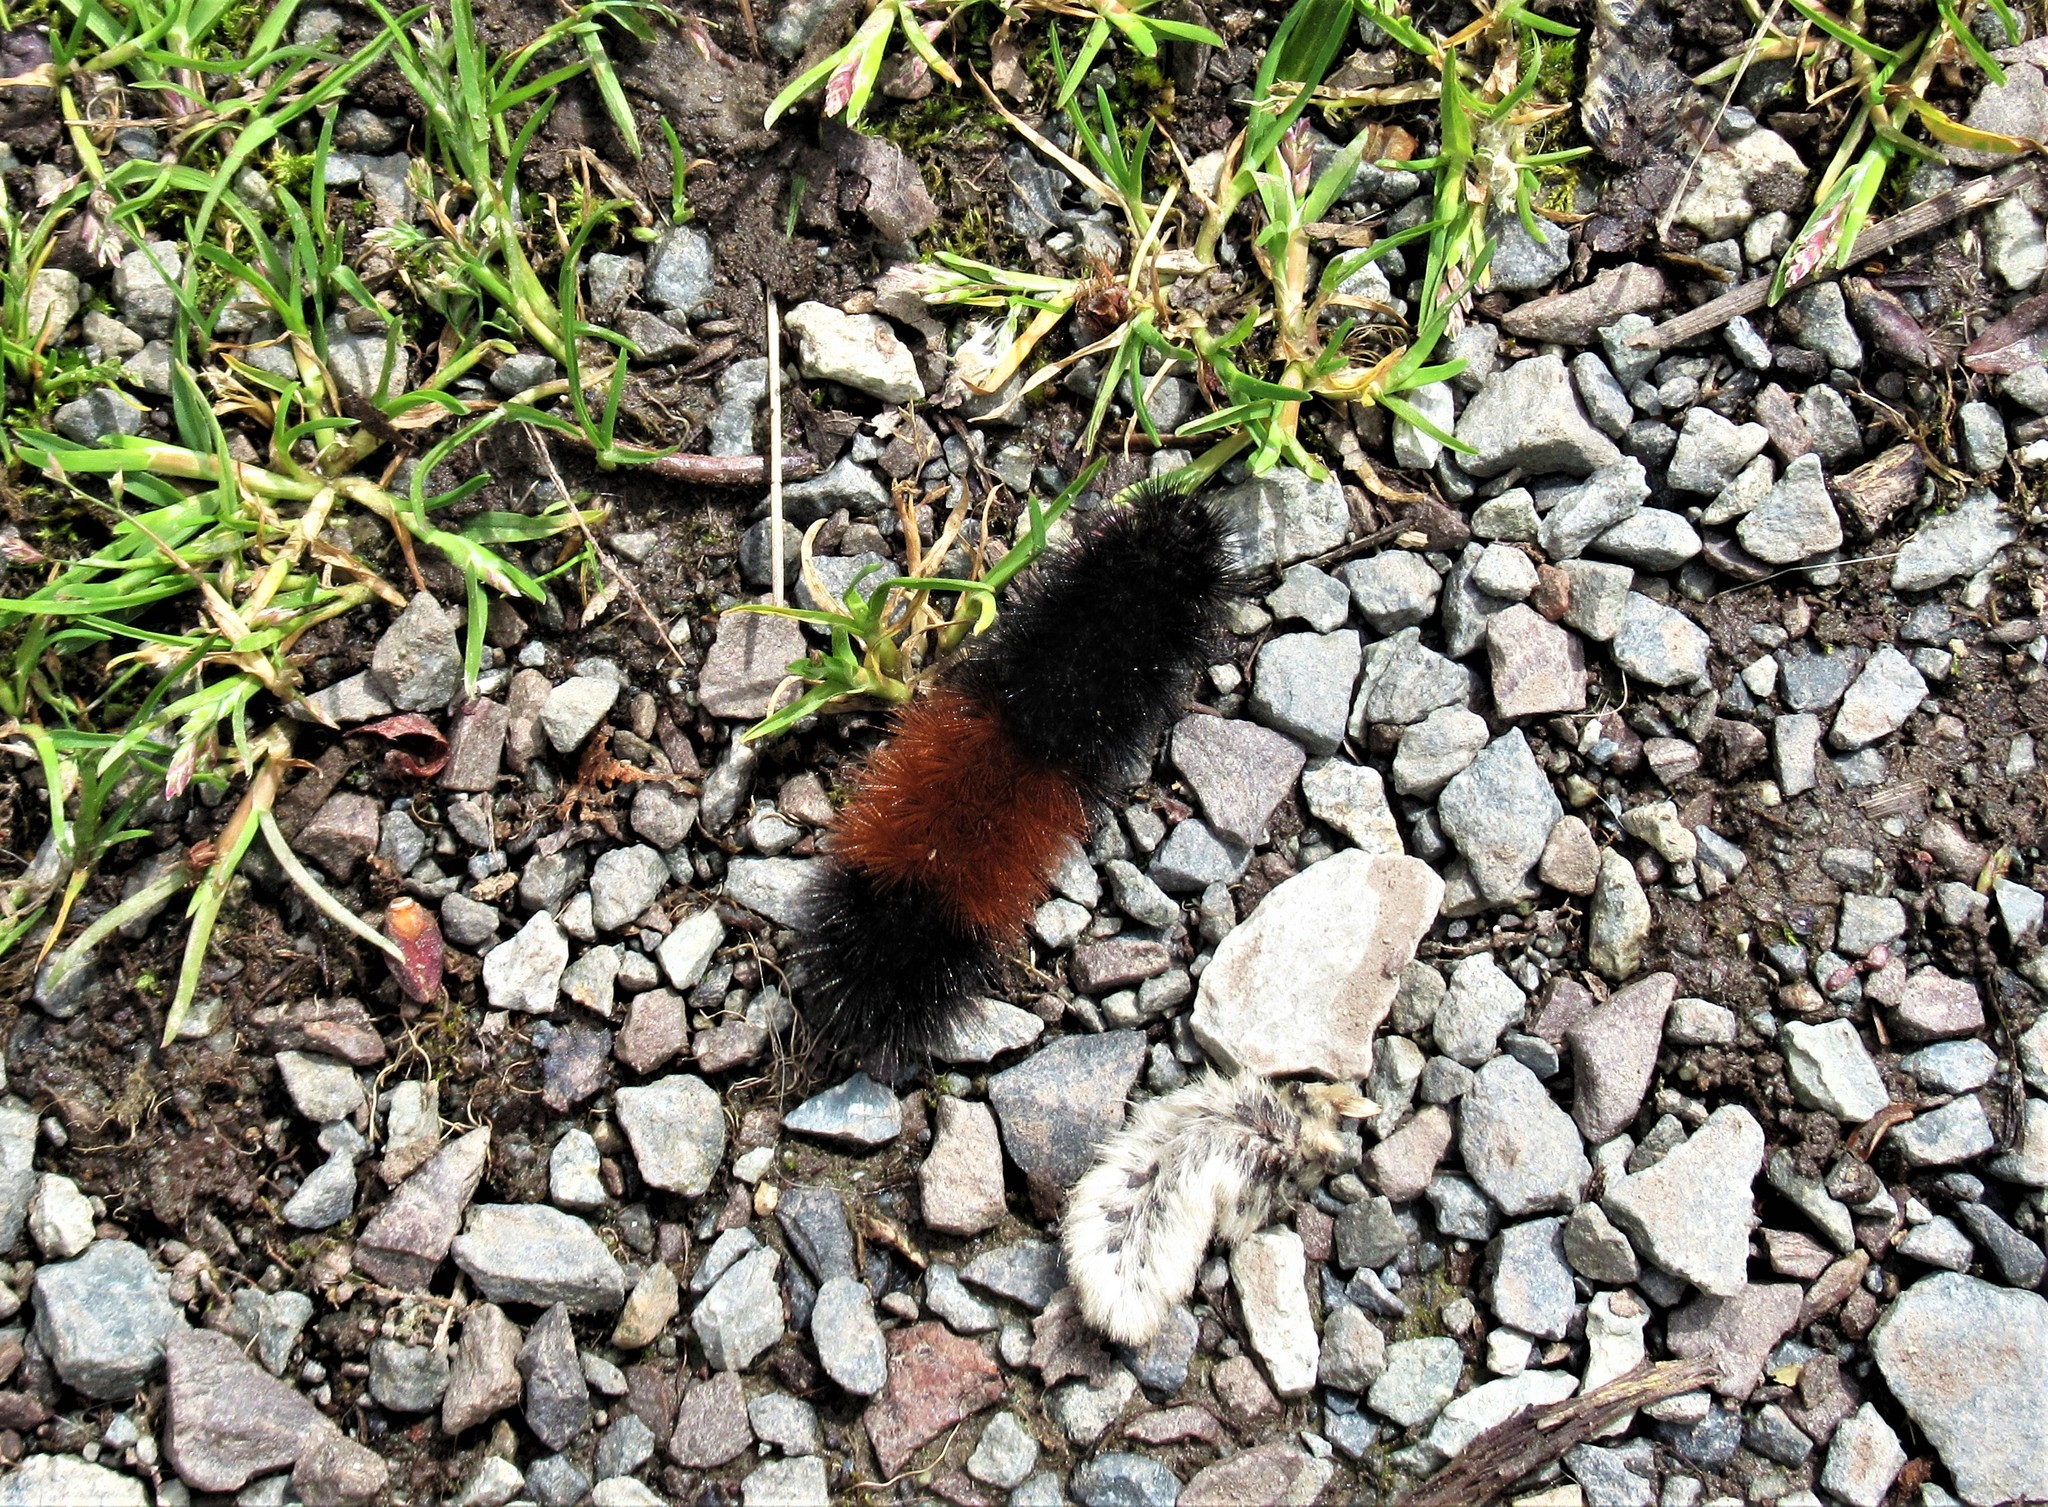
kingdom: Animalia
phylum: Arthropoda
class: Insecta
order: Lepidoptera
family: Erebidae
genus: Pyrrharctia
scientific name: Pyrrharctia isabella
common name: Isabella tiger moth
